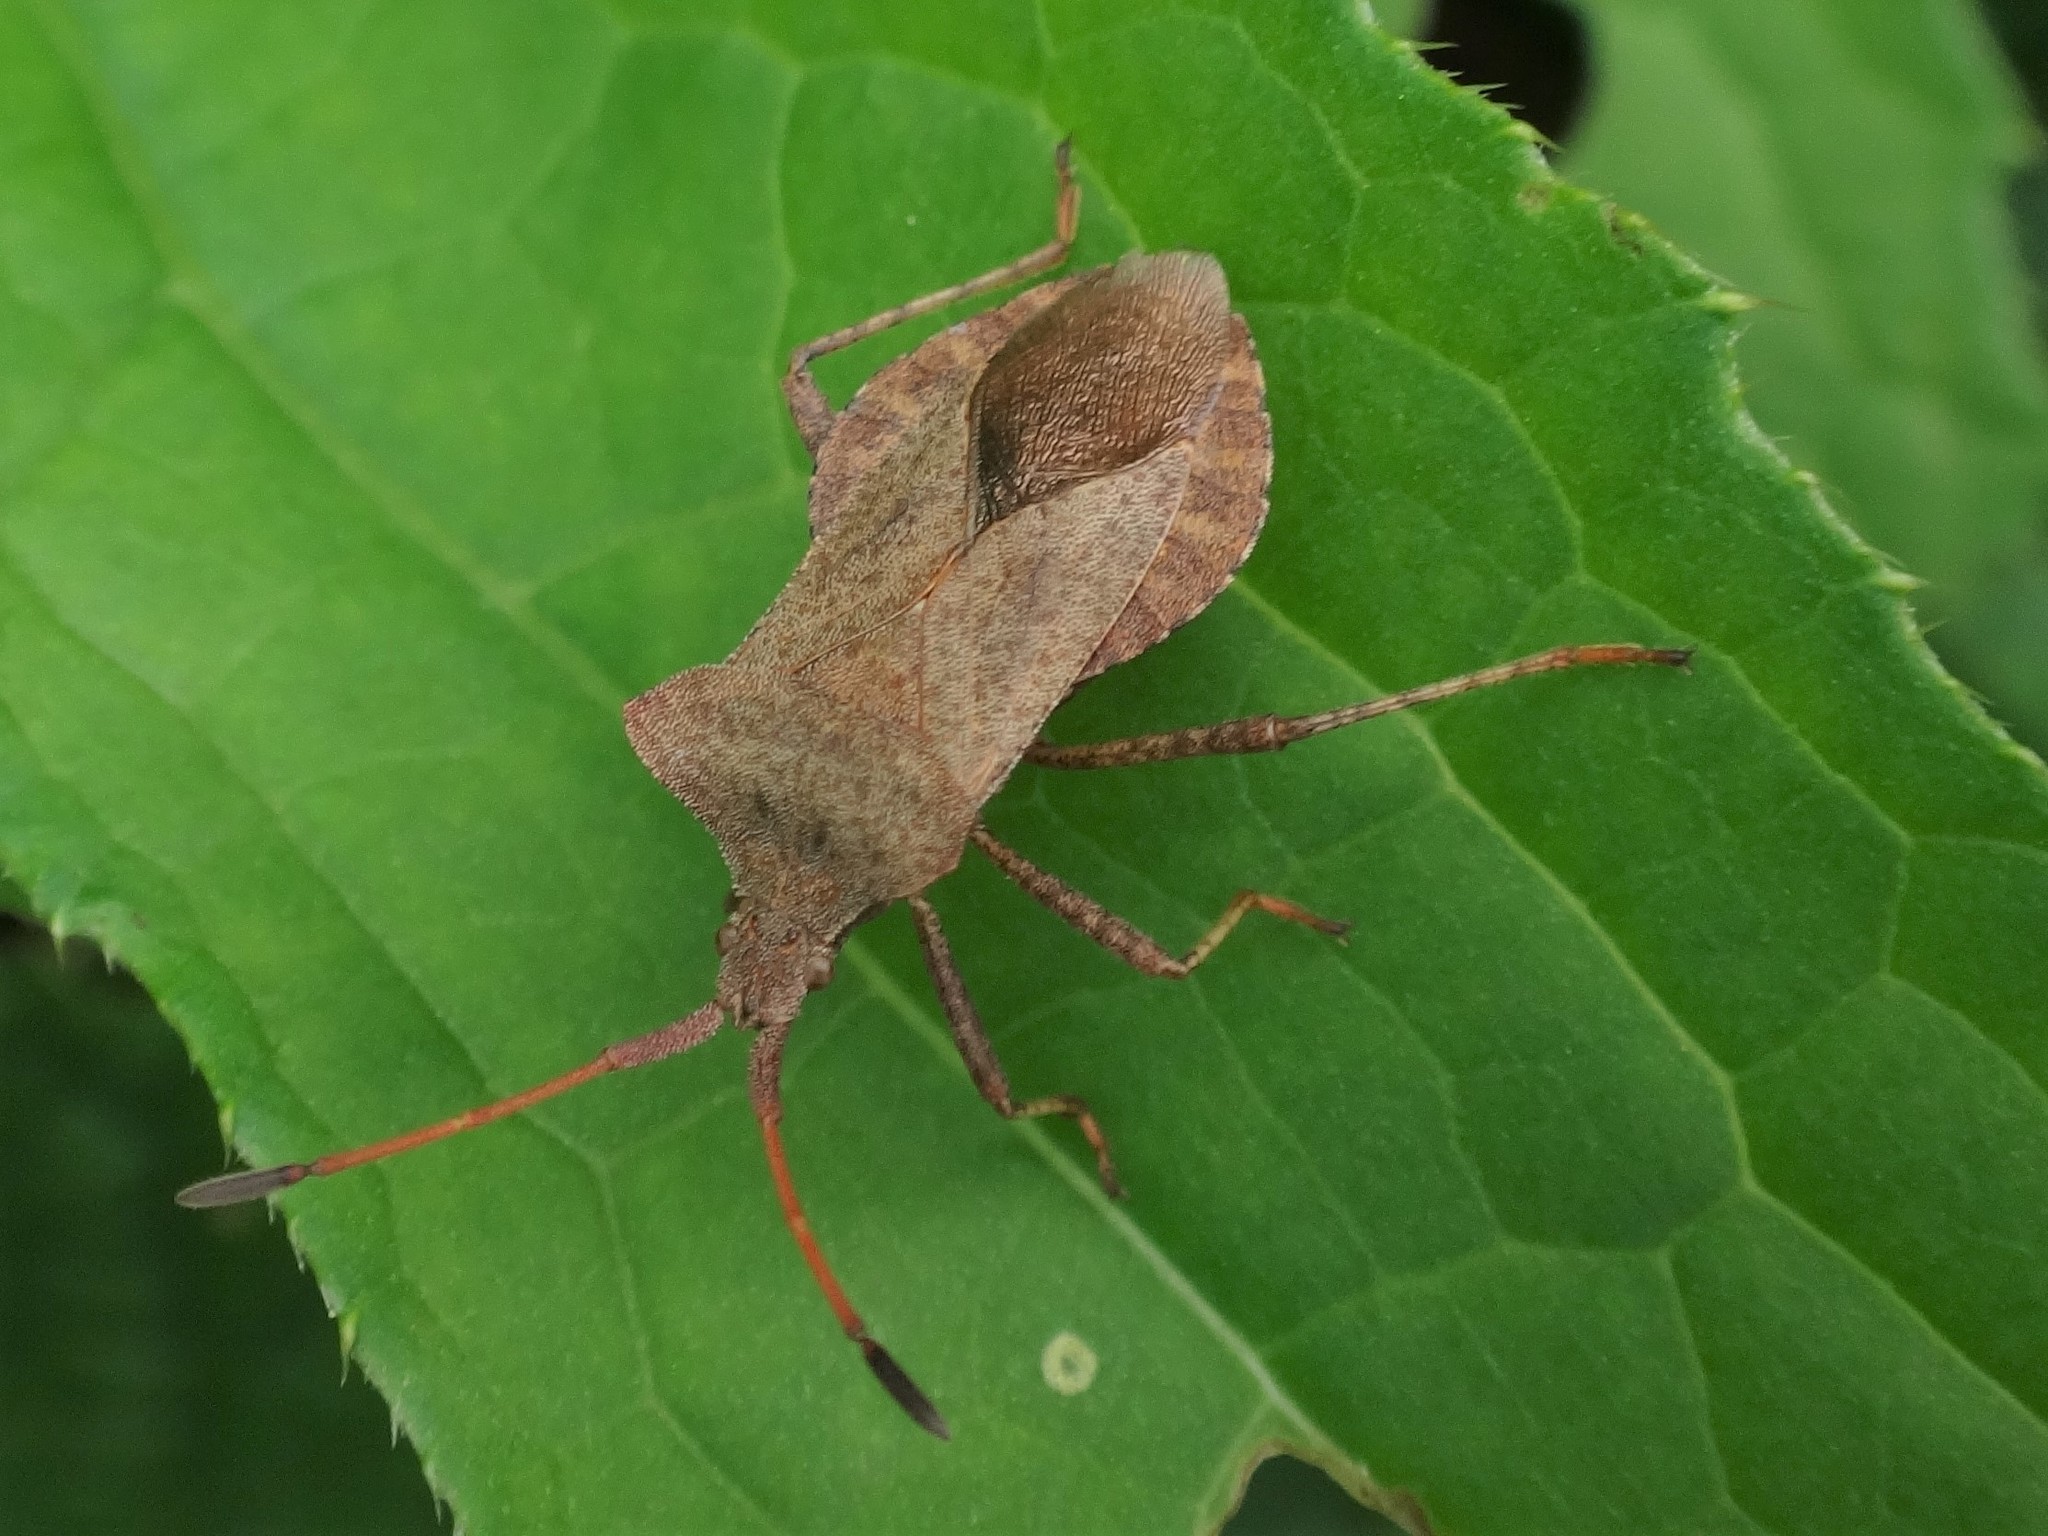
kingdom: Animalia
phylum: Arthropoda
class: Insecta
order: Hemiptera
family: Coreidae
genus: Coreus
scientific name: Coreus marginatus
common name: Dock bug
